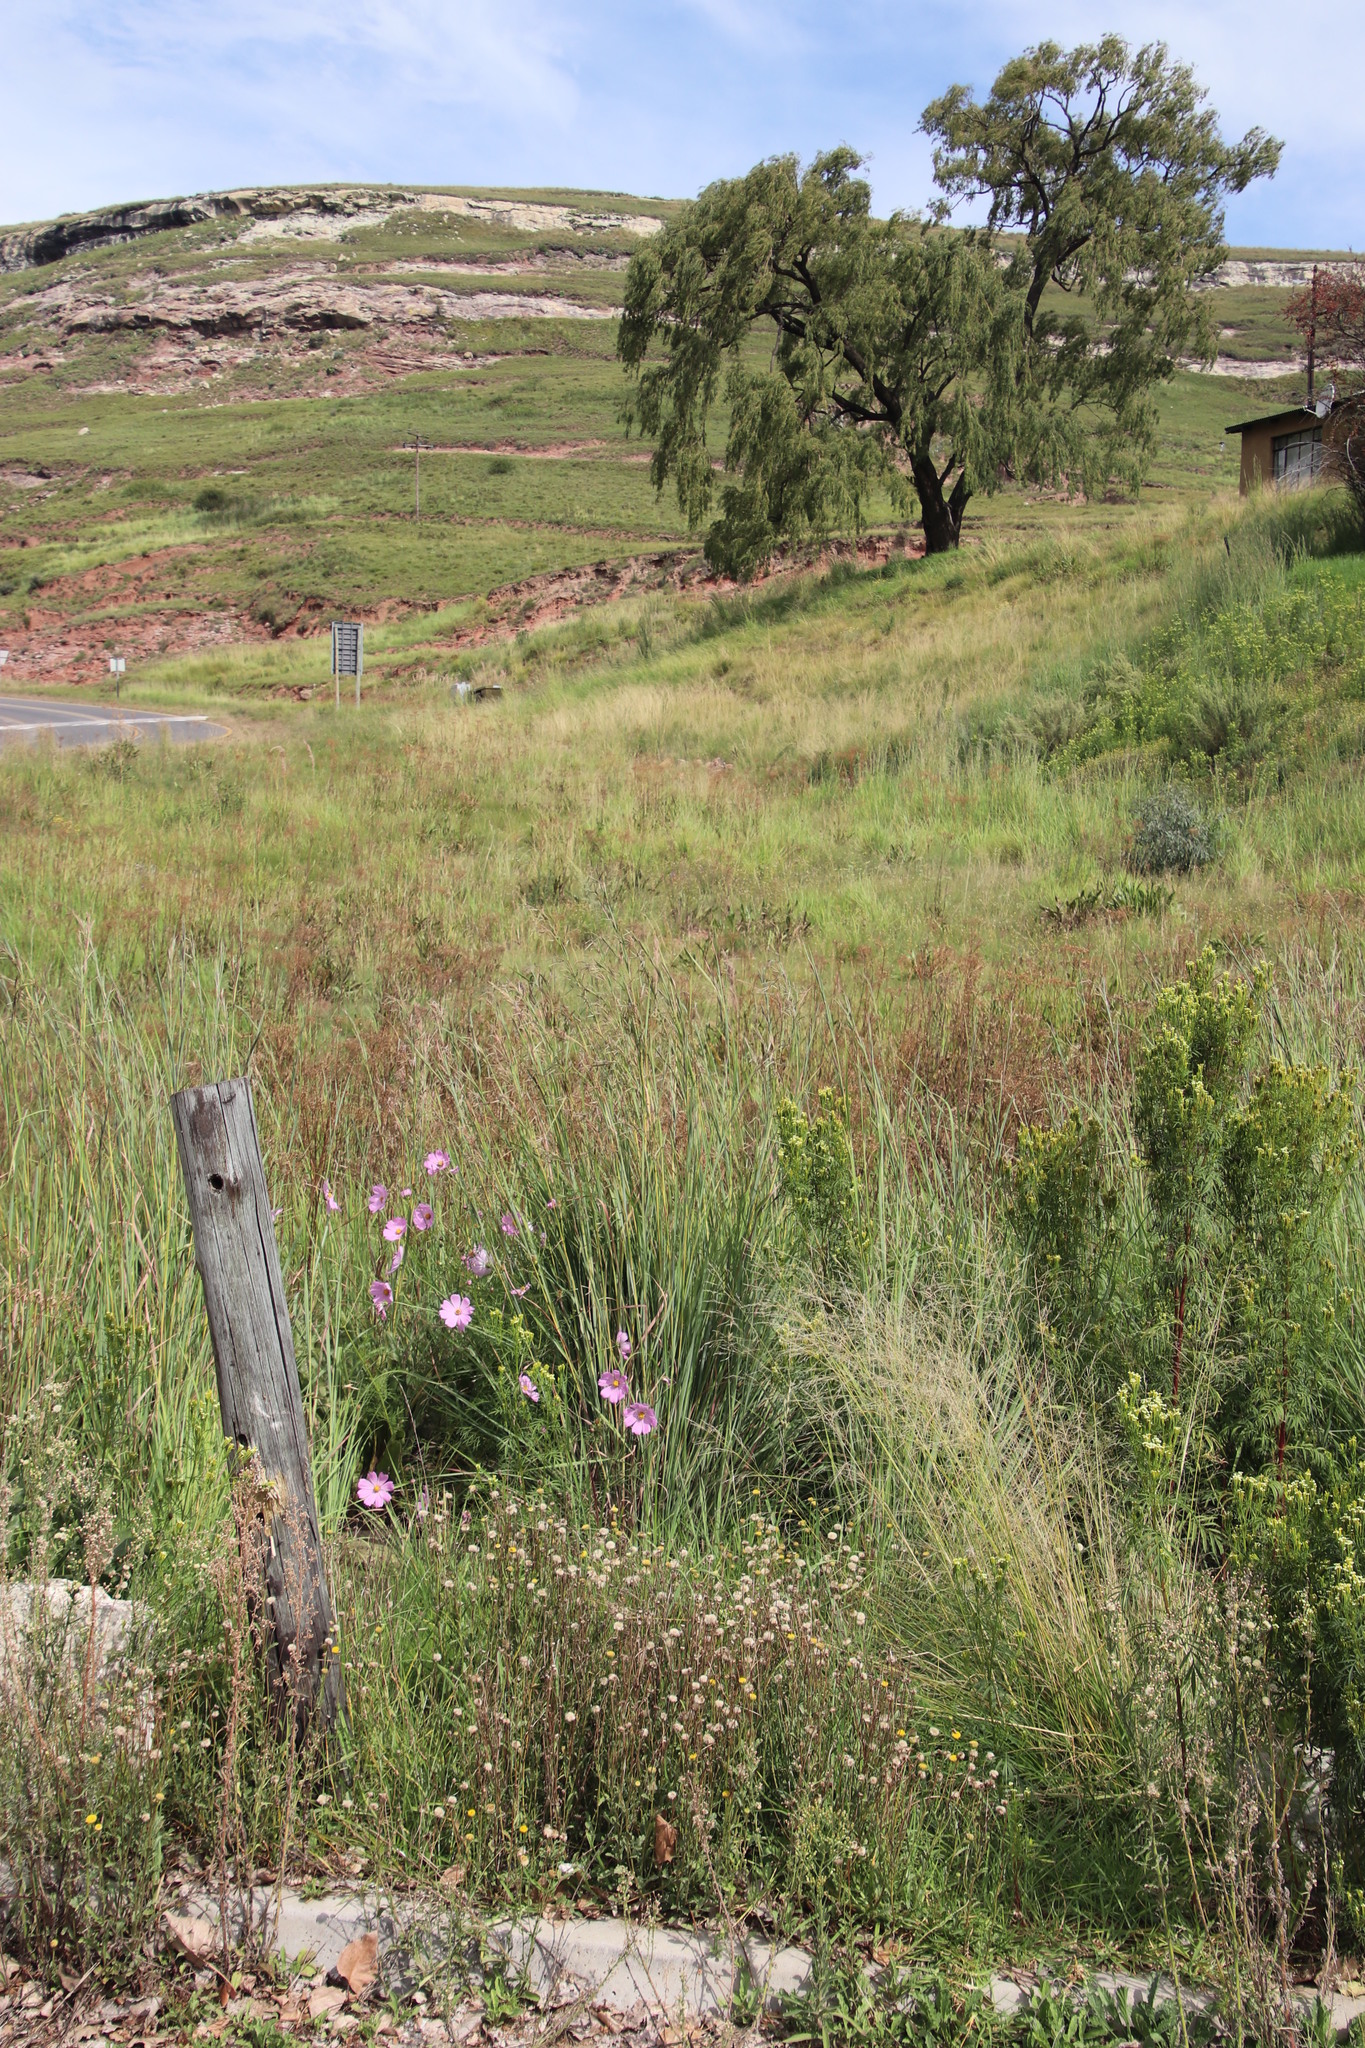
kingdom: Plantae
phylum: Tracheophyta
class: Magnoliopsida
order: Asterales
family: Asteraceae
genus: Cosmos
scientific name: Cosmos bipinnatus
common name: Garden cosmos
